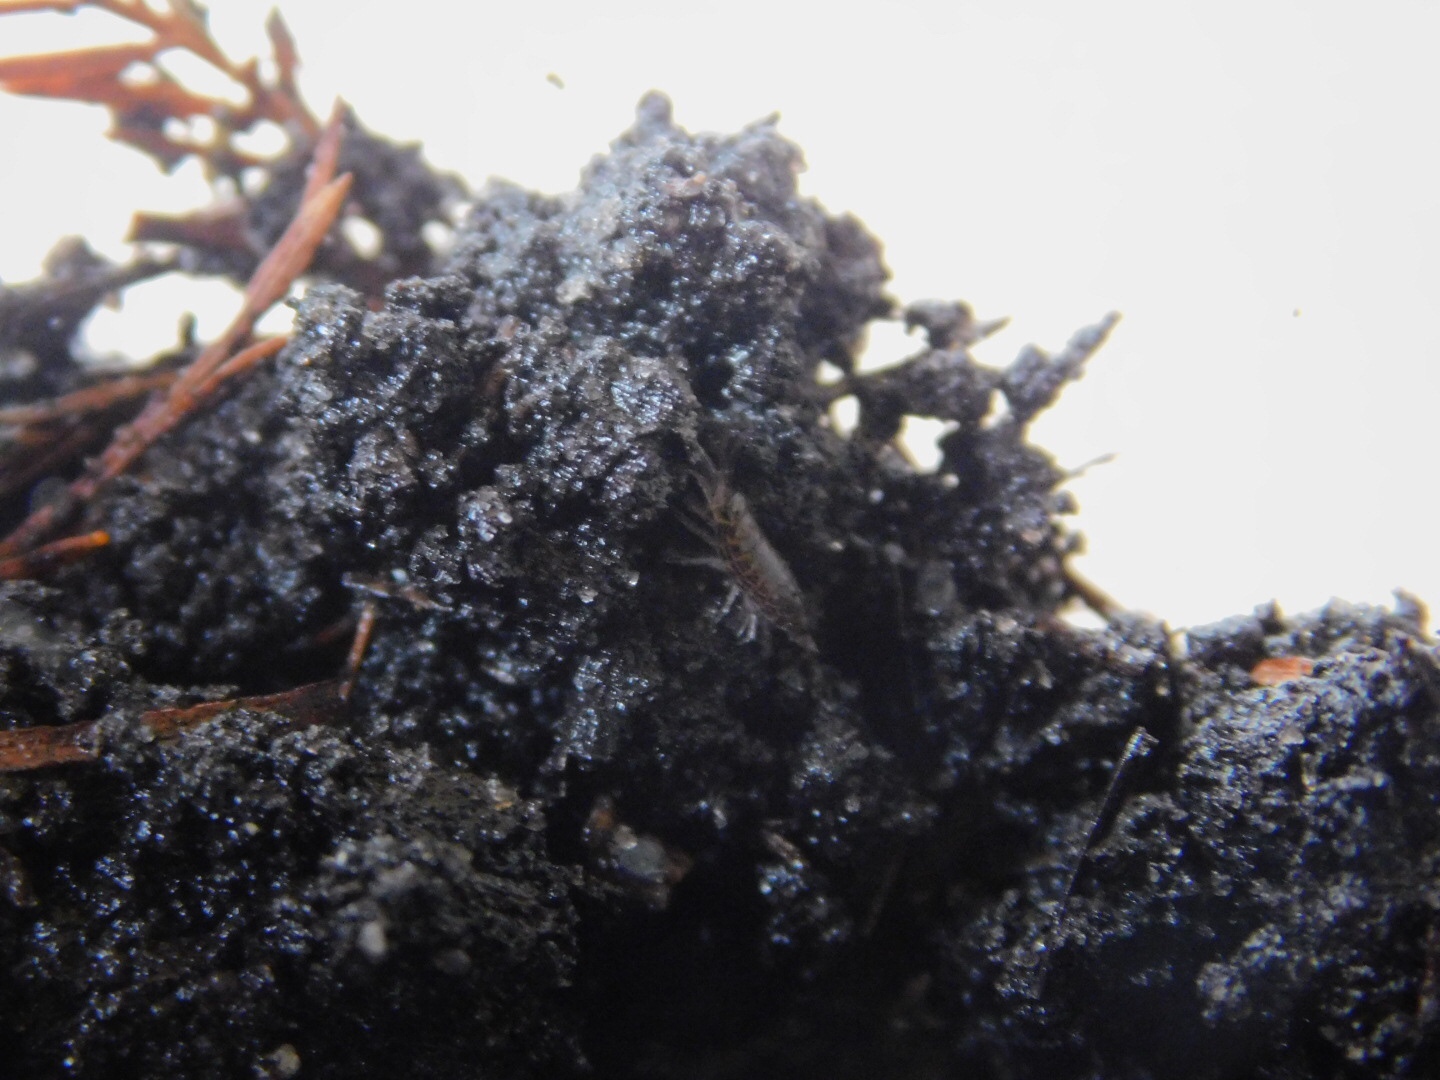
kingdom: Animalia
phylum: Arthropoda
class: Malacostraca
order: Isopoda
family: Philosciidae
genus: Atlantoscia
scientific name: Atlantoscia floridana
